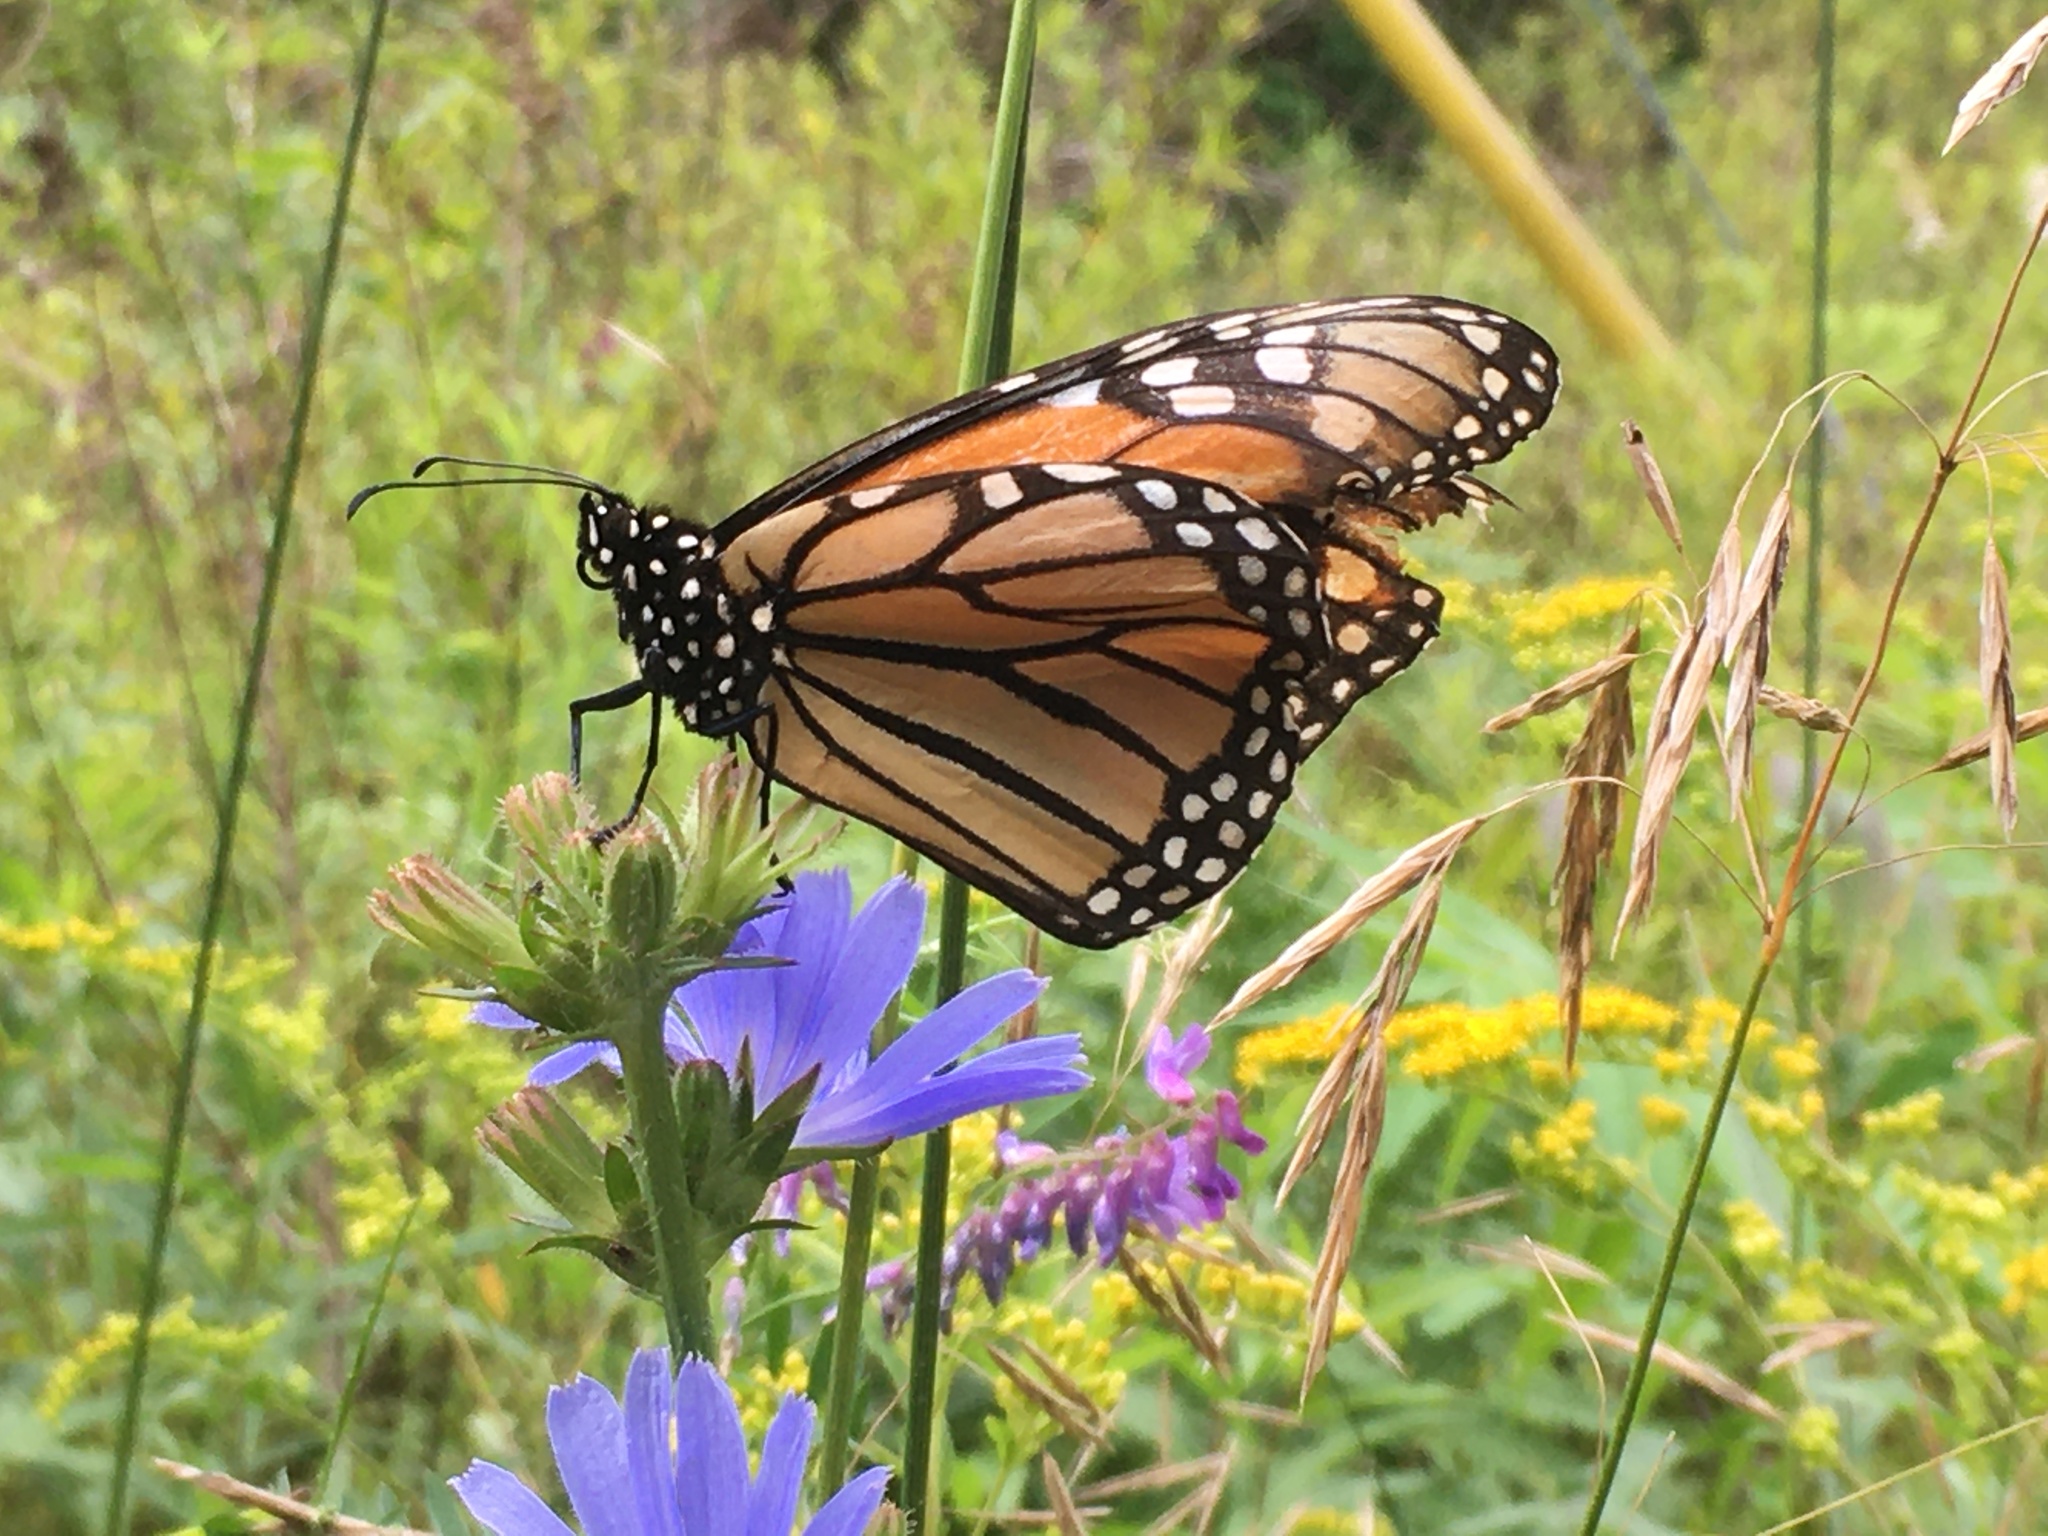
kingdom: Plantae
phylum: Tracheophyta
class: Magnoliopsida
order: Asterales
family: Asteraceae
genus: Cichorium
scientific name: Cichorium intybus
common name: Chicory
